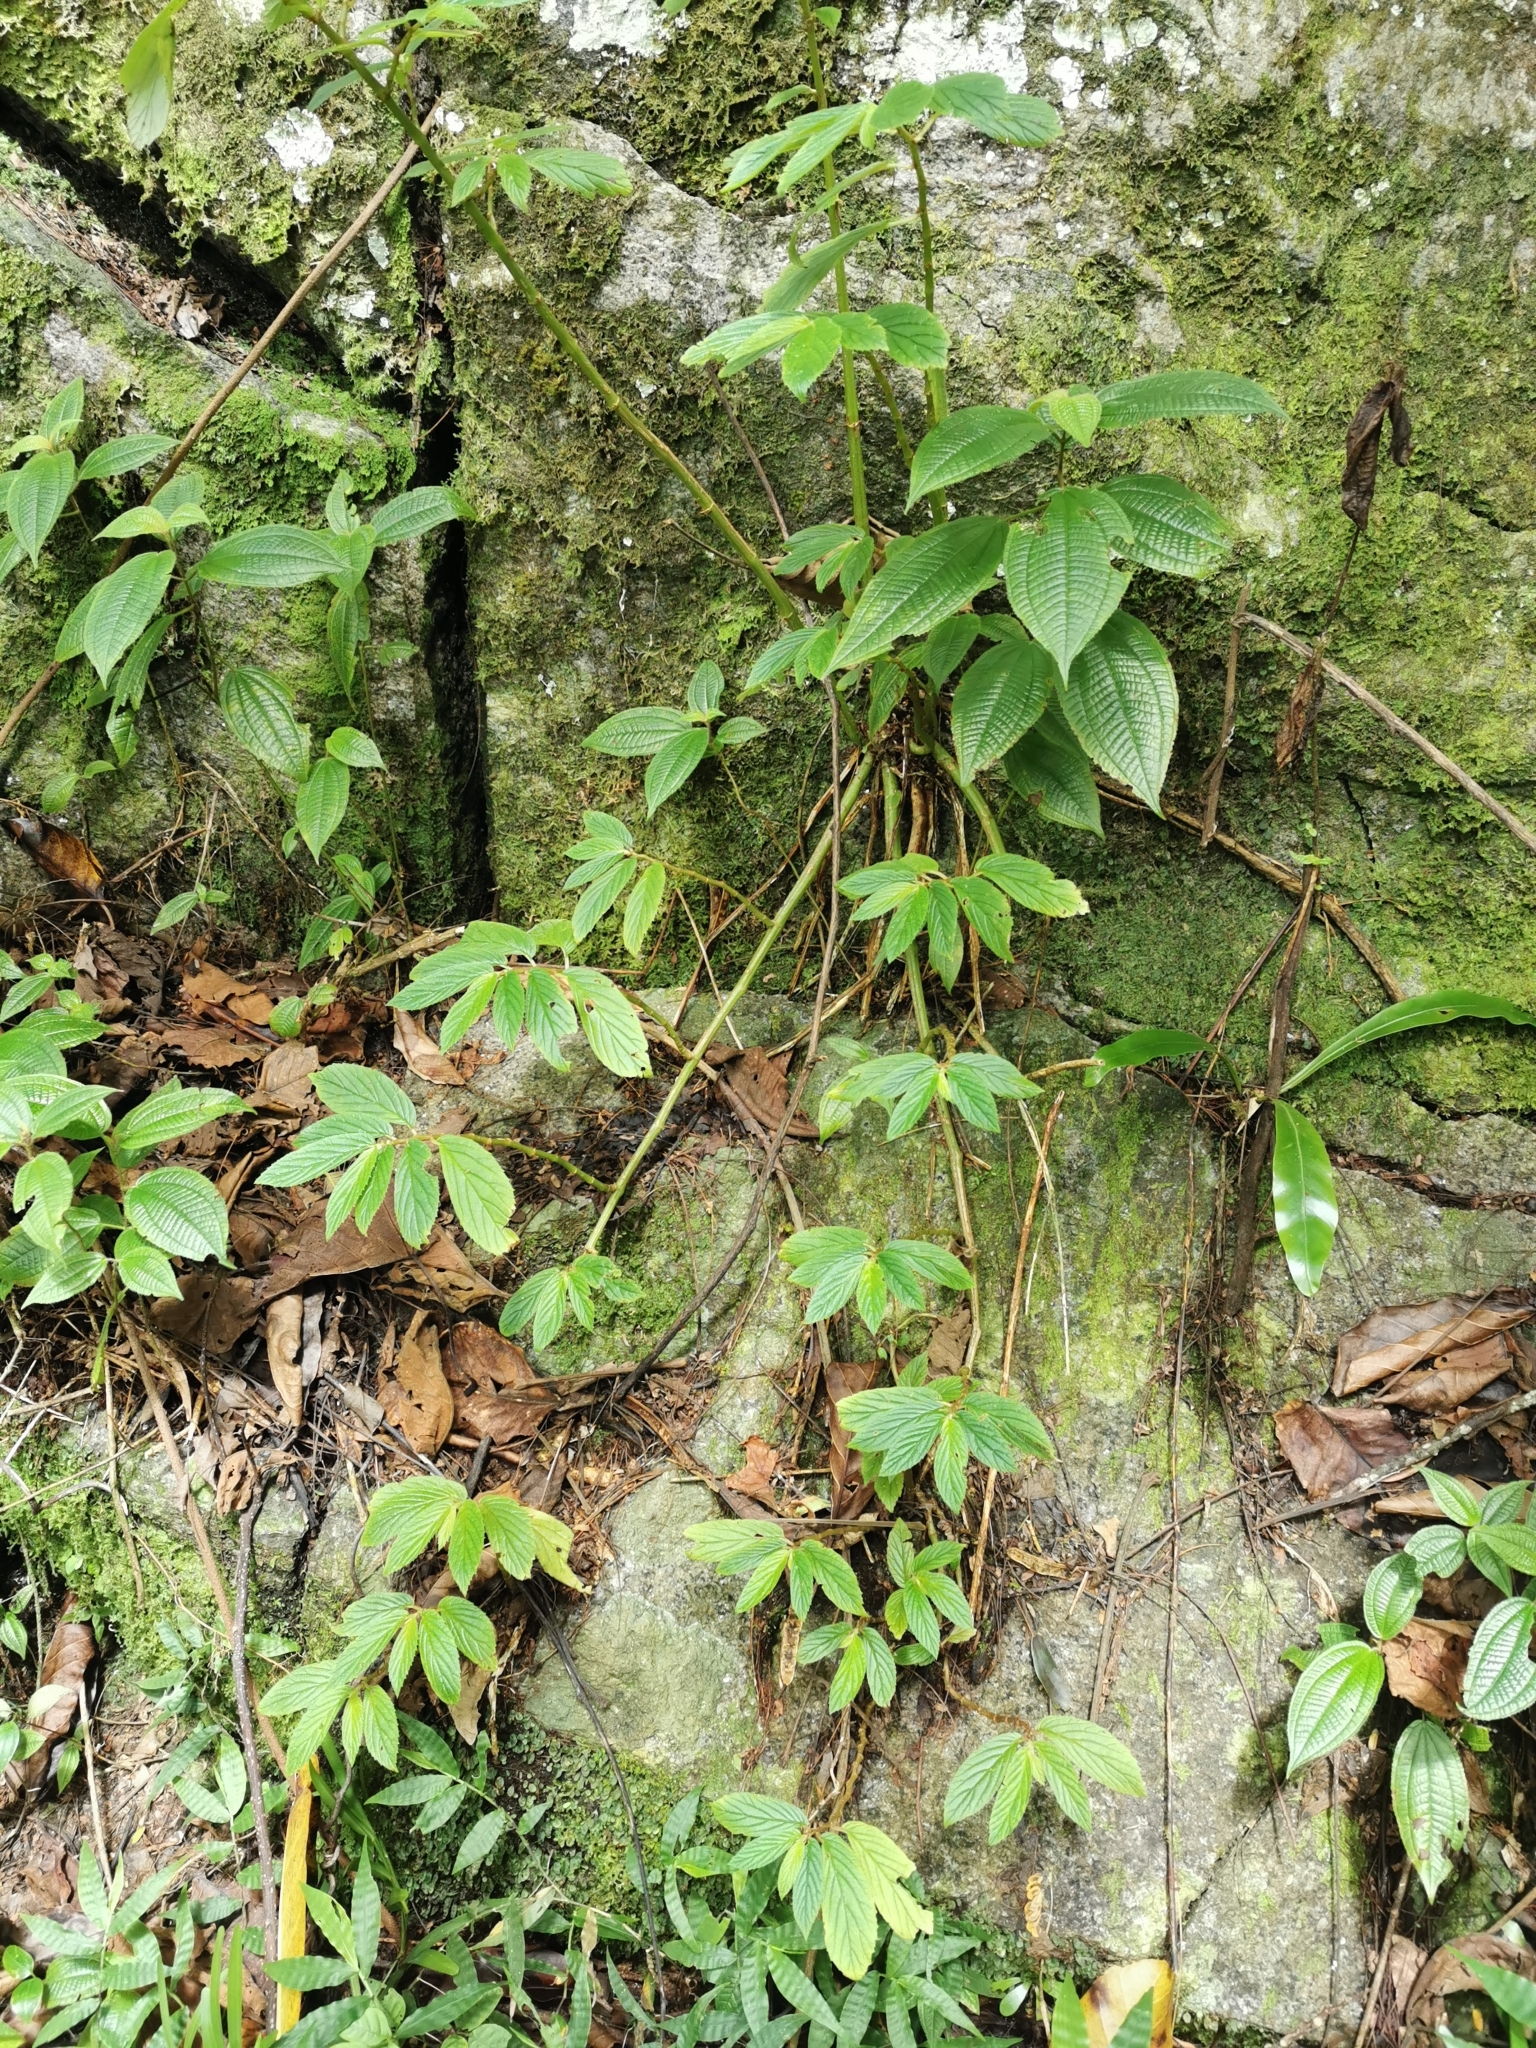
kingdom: Plantae
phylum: Tracheophyta
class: Magnoliopsida
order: Cucurbitales
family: Begoniaceae
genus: Begonia
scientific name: Begonia ulmifolia
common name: Elm-leaf begonia
